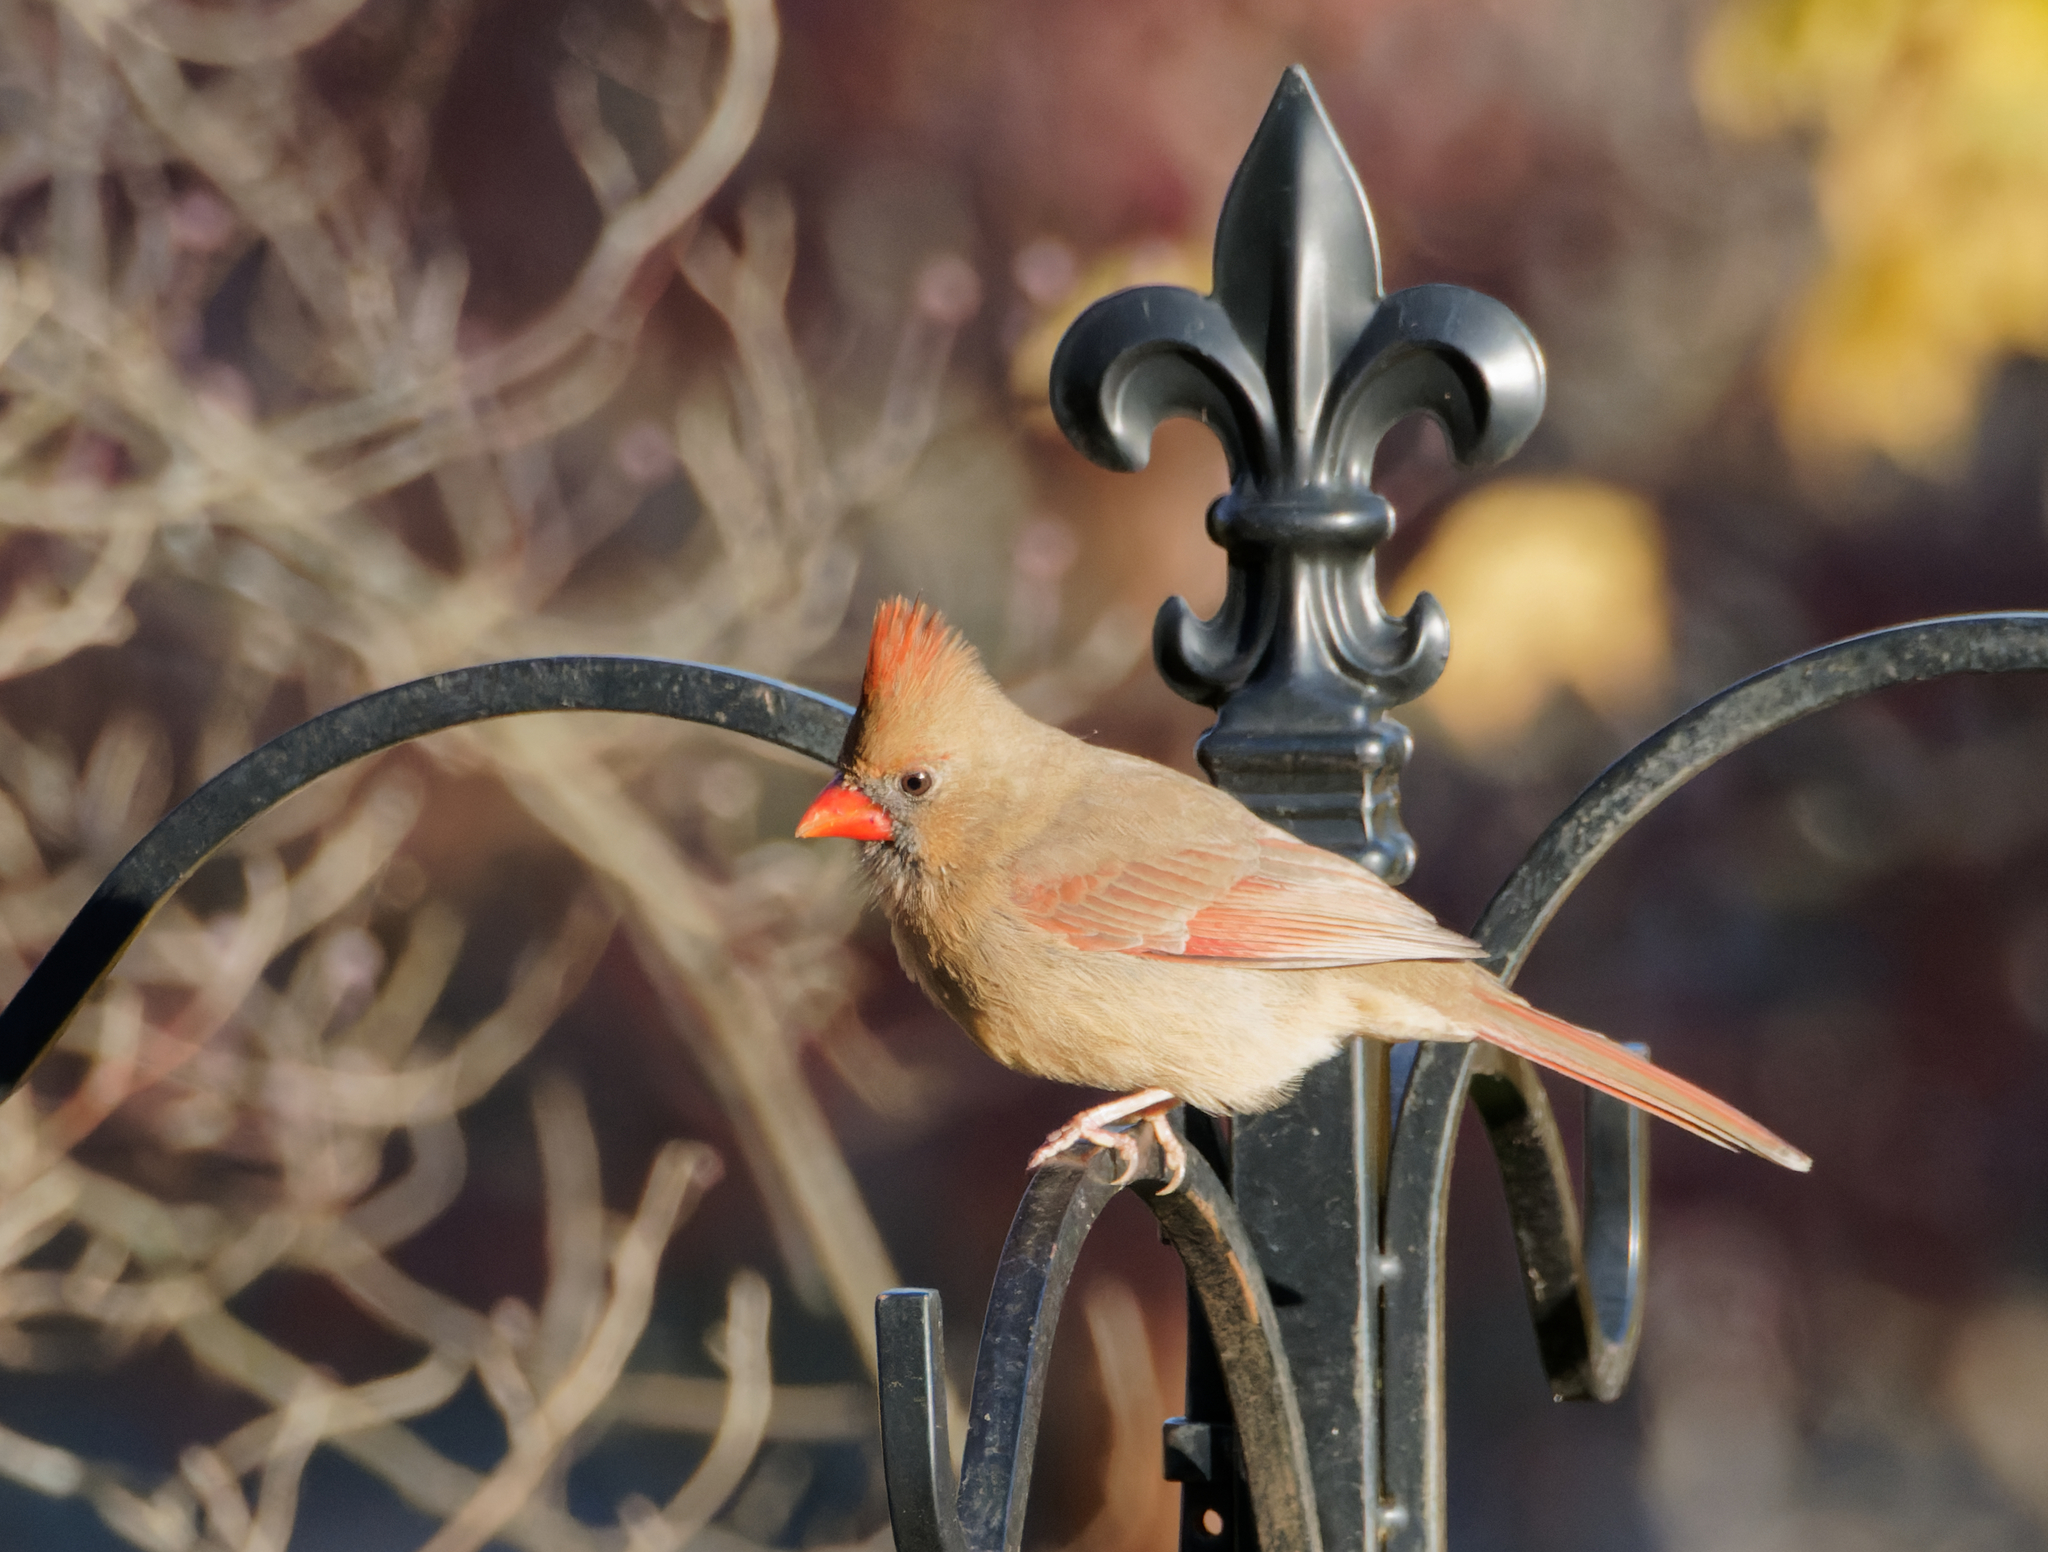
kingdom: Animalia
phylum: Chordata
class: Aves
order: Passeriformes
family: Cardinalidae
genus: Cardinalis
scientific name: Cardinalis cardinalis
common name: Northern cardinal
